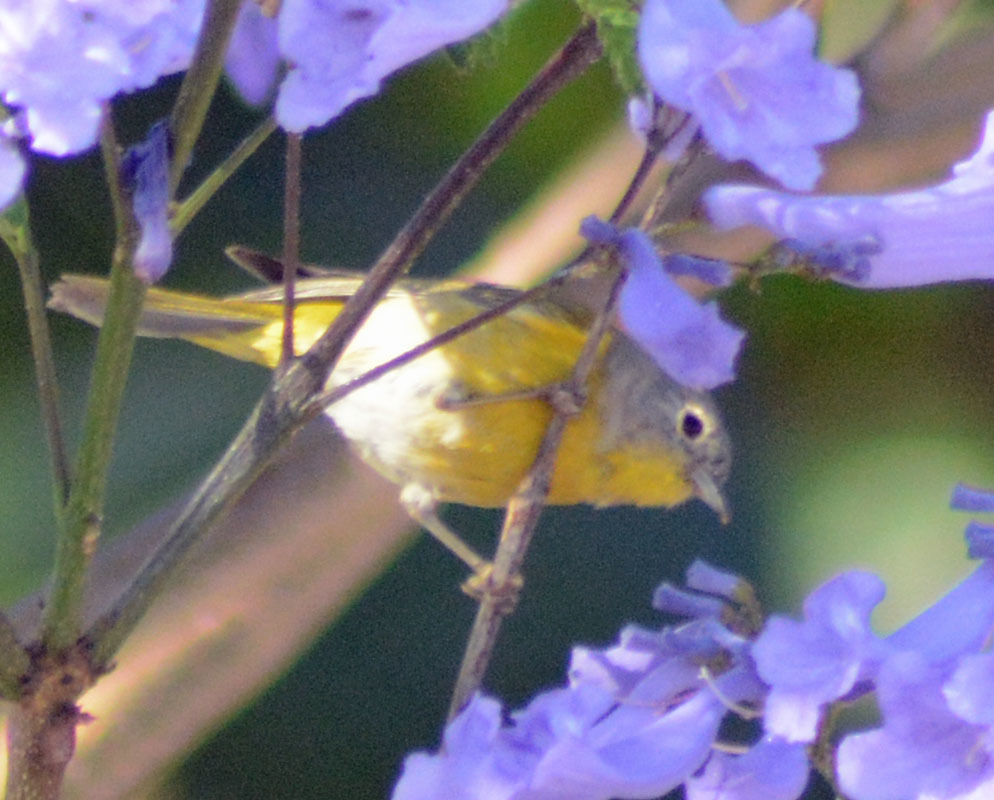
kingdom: Animalia
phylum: Chordata
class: Aves
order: Passeriformes
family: Parulidae
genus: Leiothlypis
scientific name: Leiothlypis ruficapilla
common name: Nashville warbler
